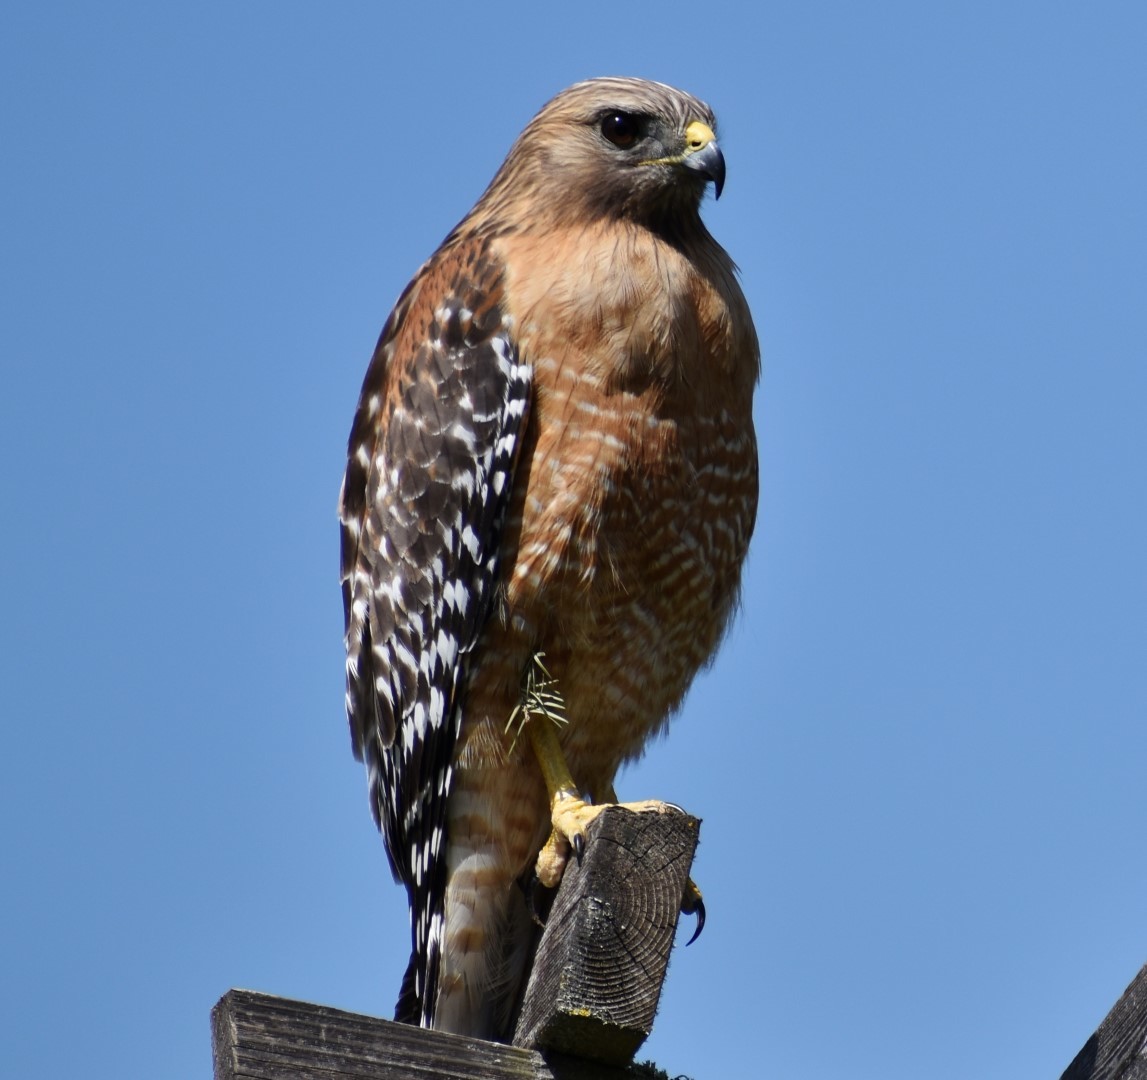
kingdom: Animalia
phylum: Chordata
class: Aves
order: Accipitriformes
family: Accipitridae
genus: Buteo
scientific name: Buteo lineatus
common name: Red-shouldered hawk
